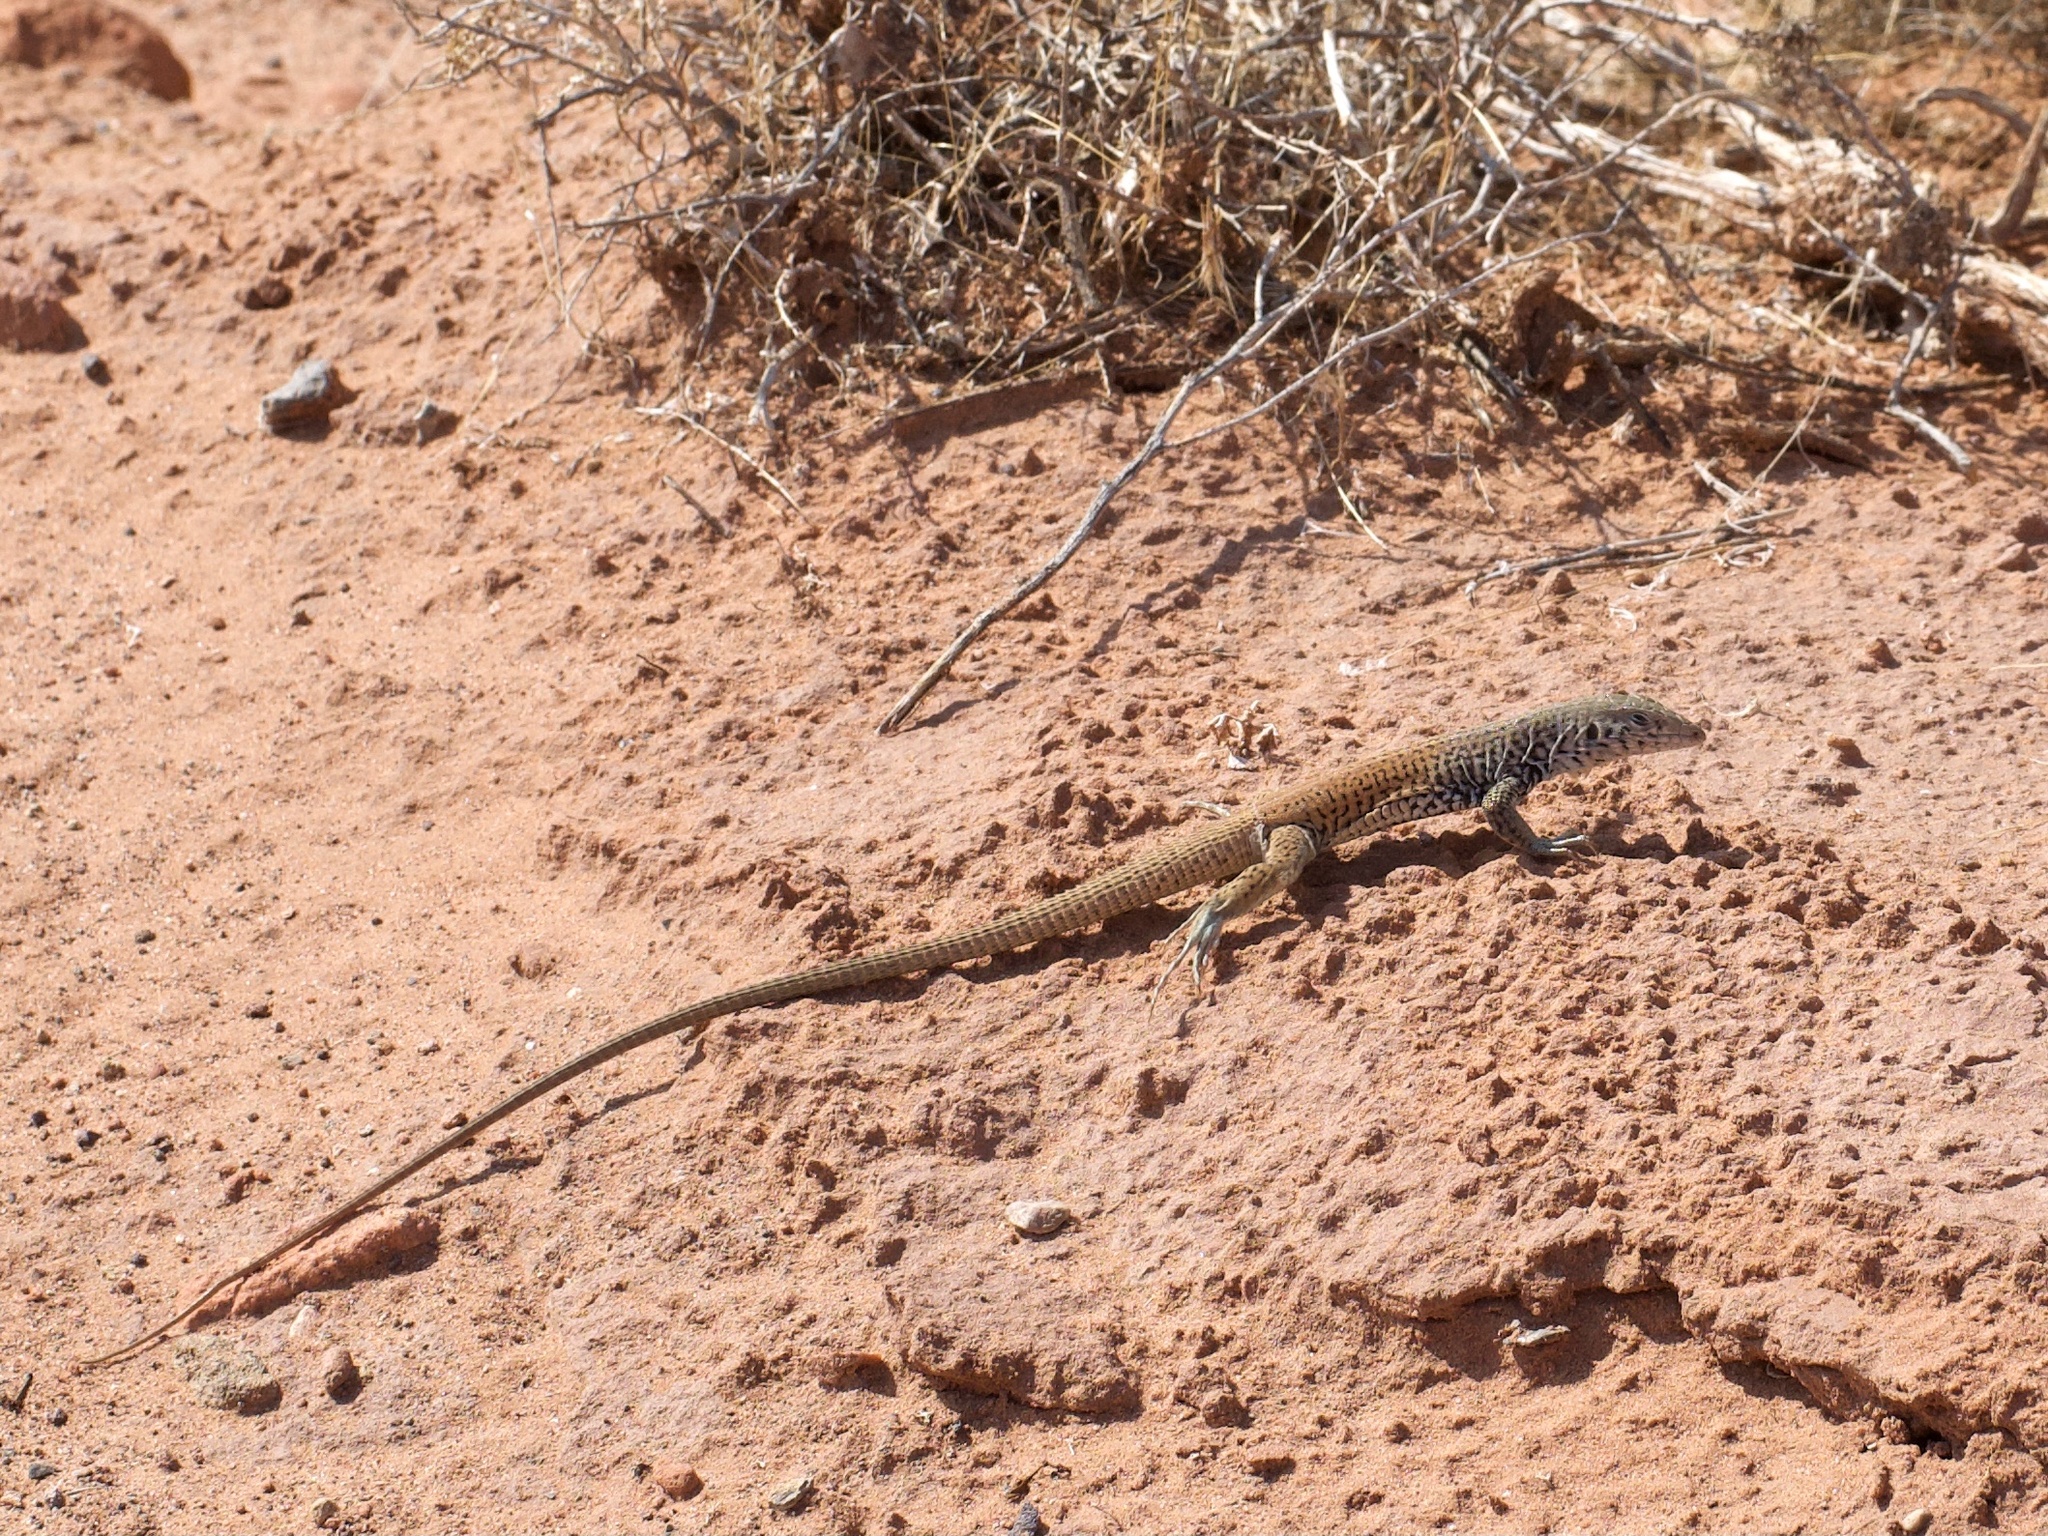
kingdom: Animalia
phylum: Chordata
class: Squamata
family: Teiidae
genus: Aspidoscelis
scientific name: Aspidoscelis tigris
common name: Tiger whiptail
